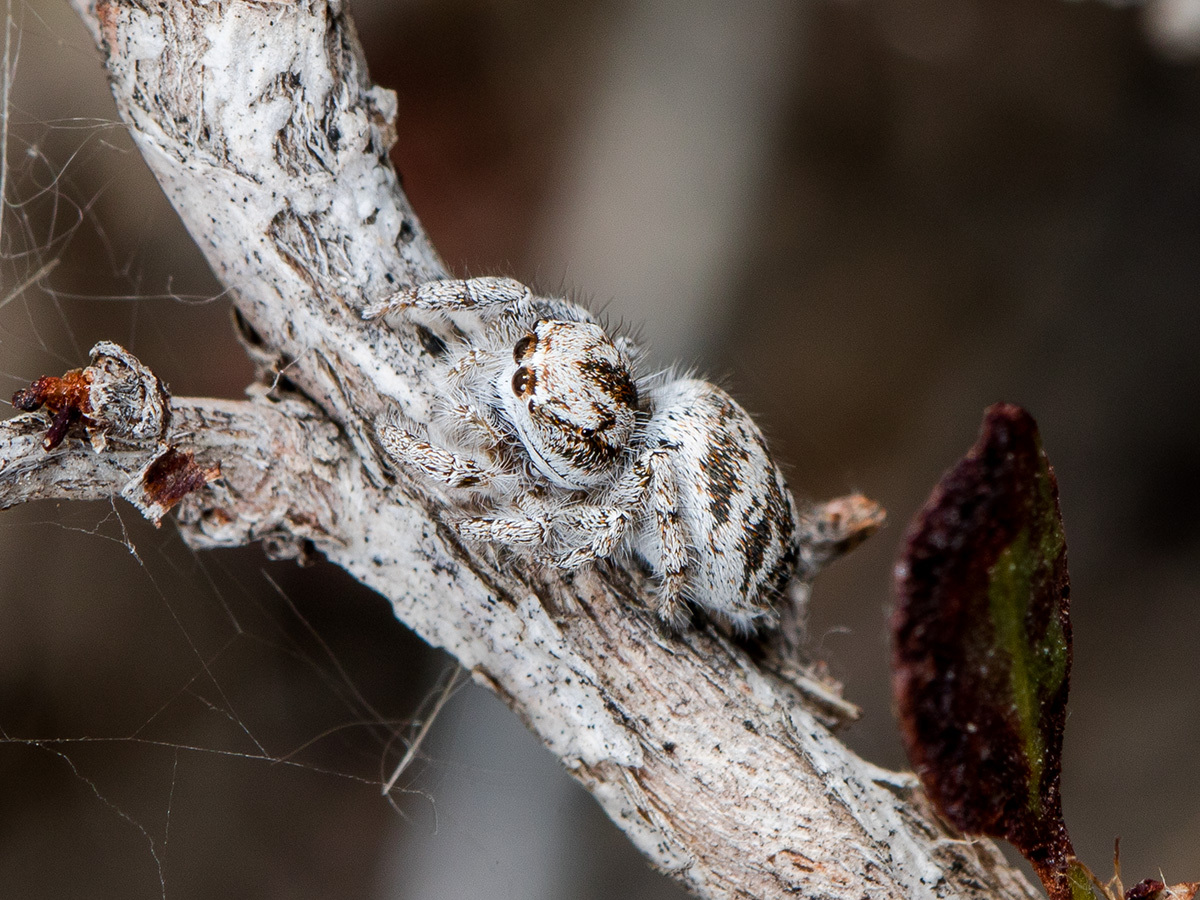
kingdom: Animalia
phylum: Arthropoda
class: Arachnida
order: Araneae
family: Salticidae
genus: Pseudomogrus
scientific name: Pseudomogrus dalaensis
